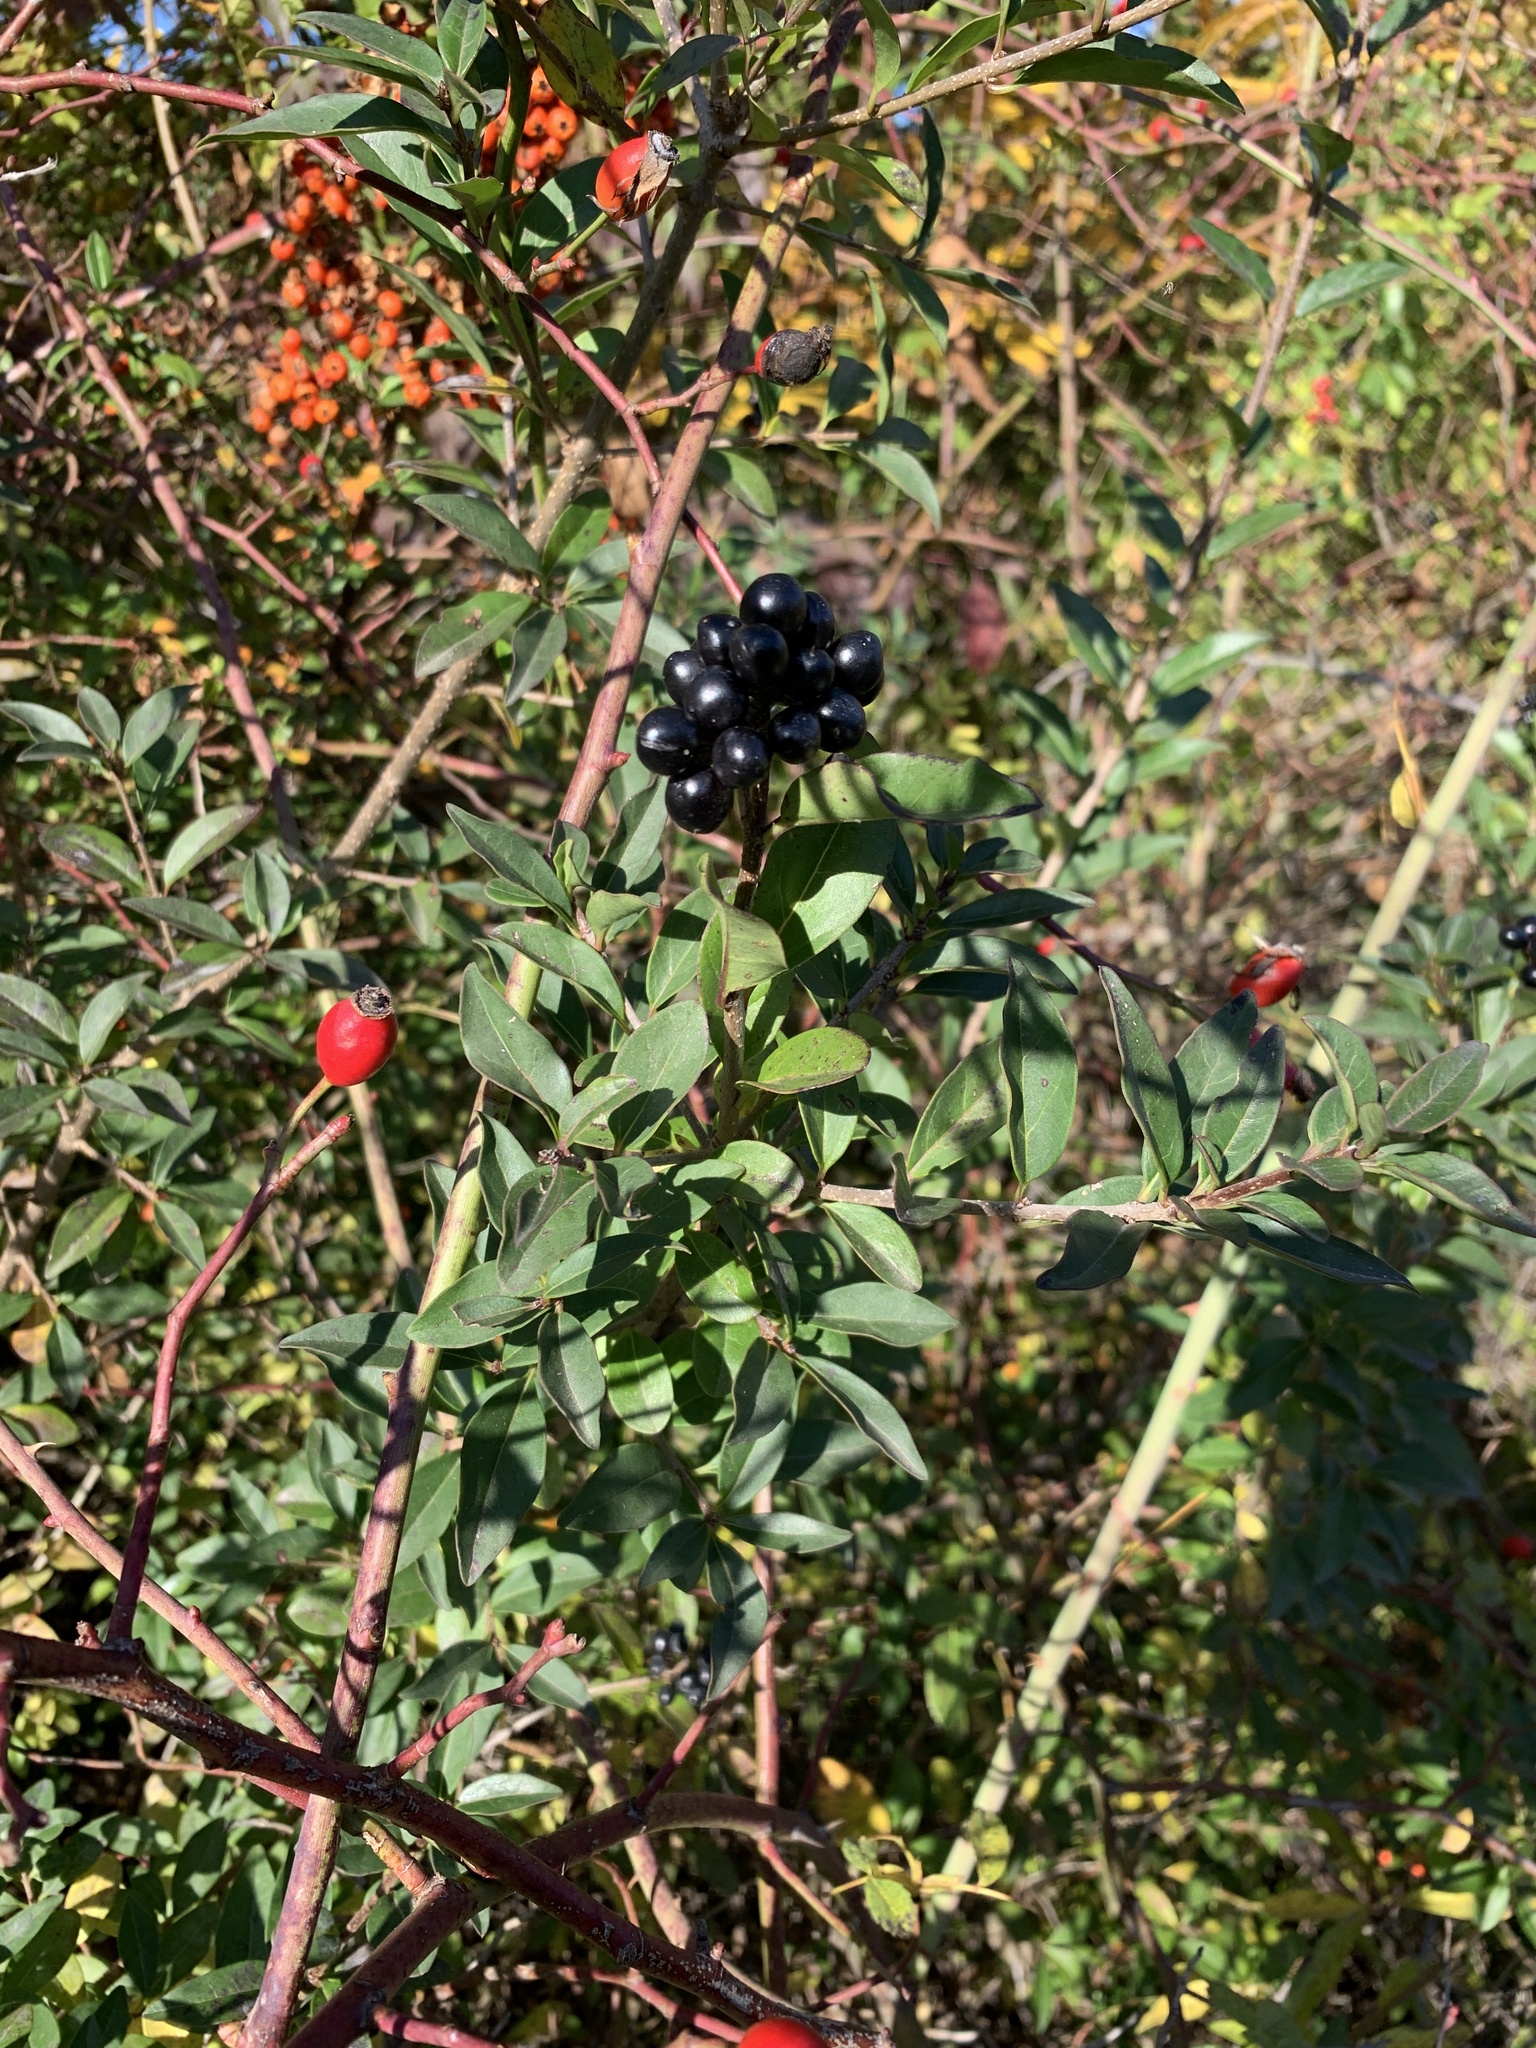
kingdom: Plantae
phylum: Tracheophyta
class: Magnoliopsida
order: Lamiales
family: Oleaceae
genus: Ligustrum
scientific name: Ligustrum vulgare
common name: Wild privet
